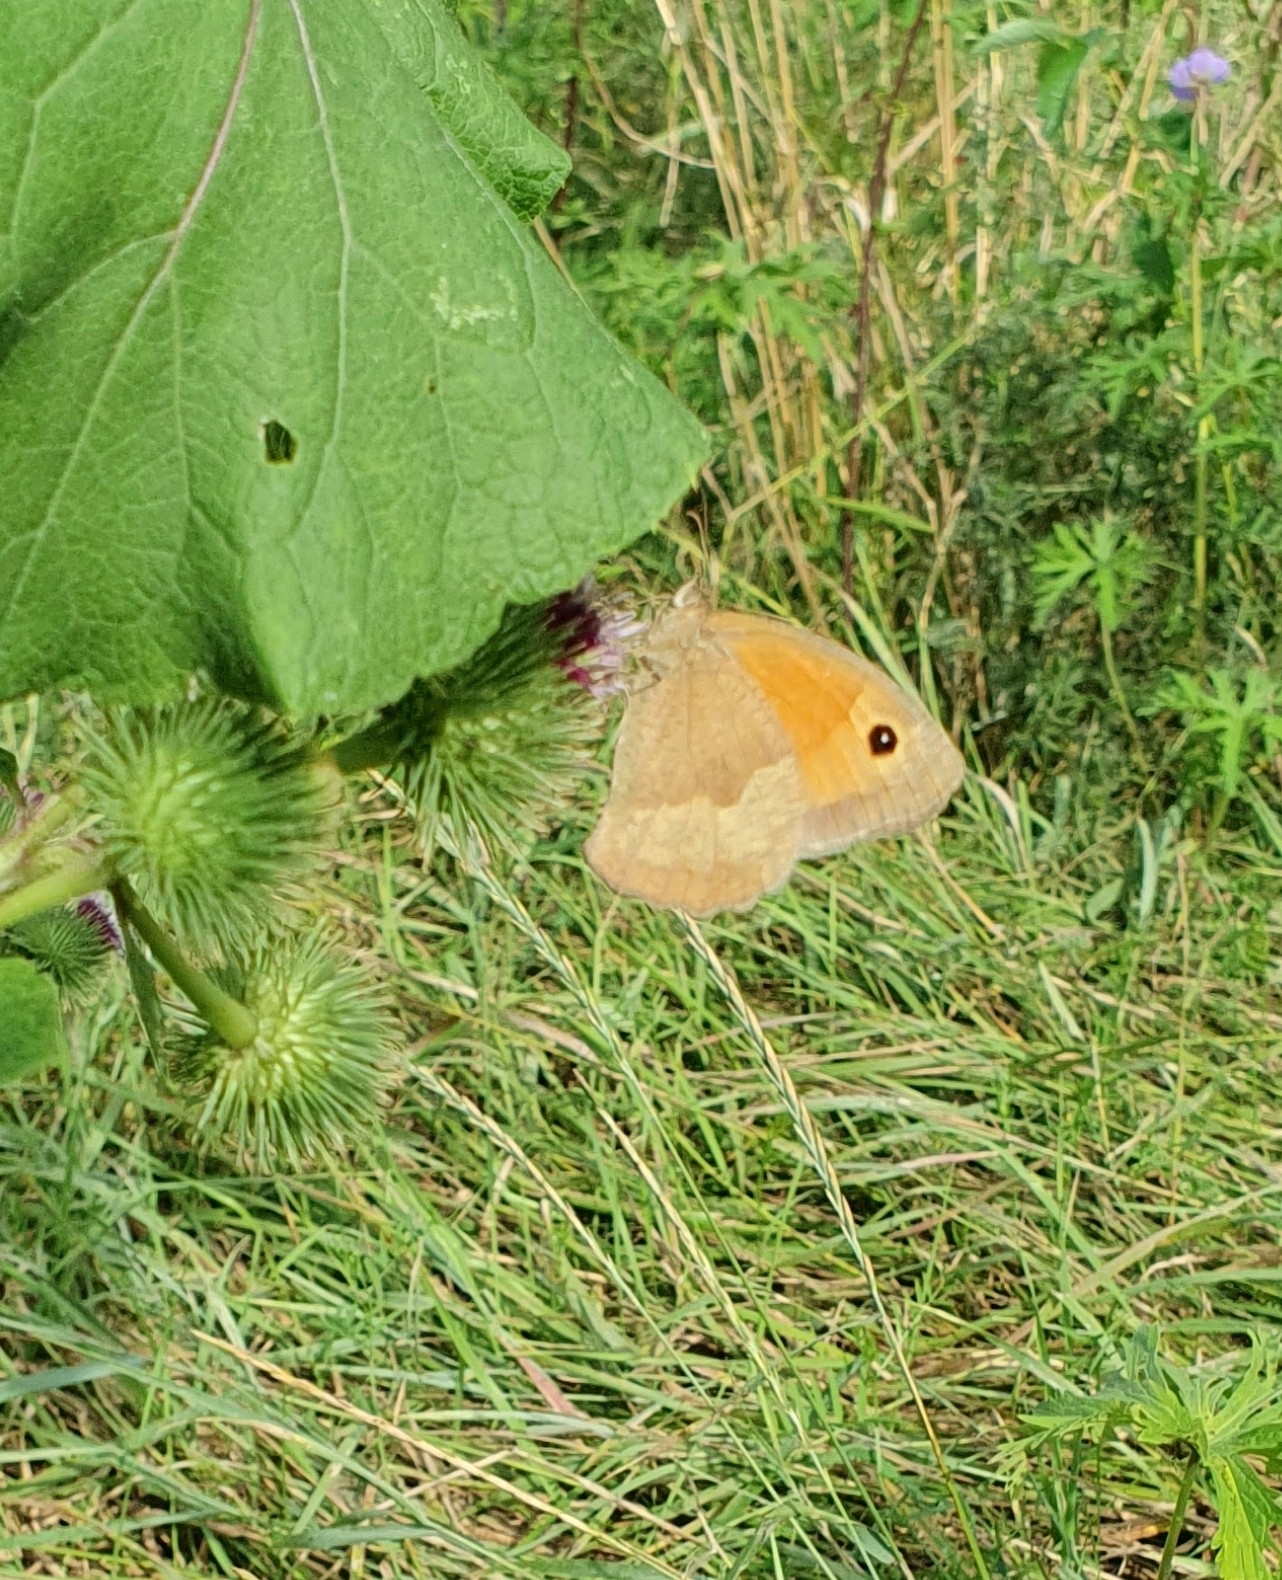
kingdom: Animalia
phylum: Arthropoda
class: Insecta
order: Lepidoptera
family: Nymphalidae
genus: Maniola
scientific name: Maniola jurtina
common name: Meadow brown
